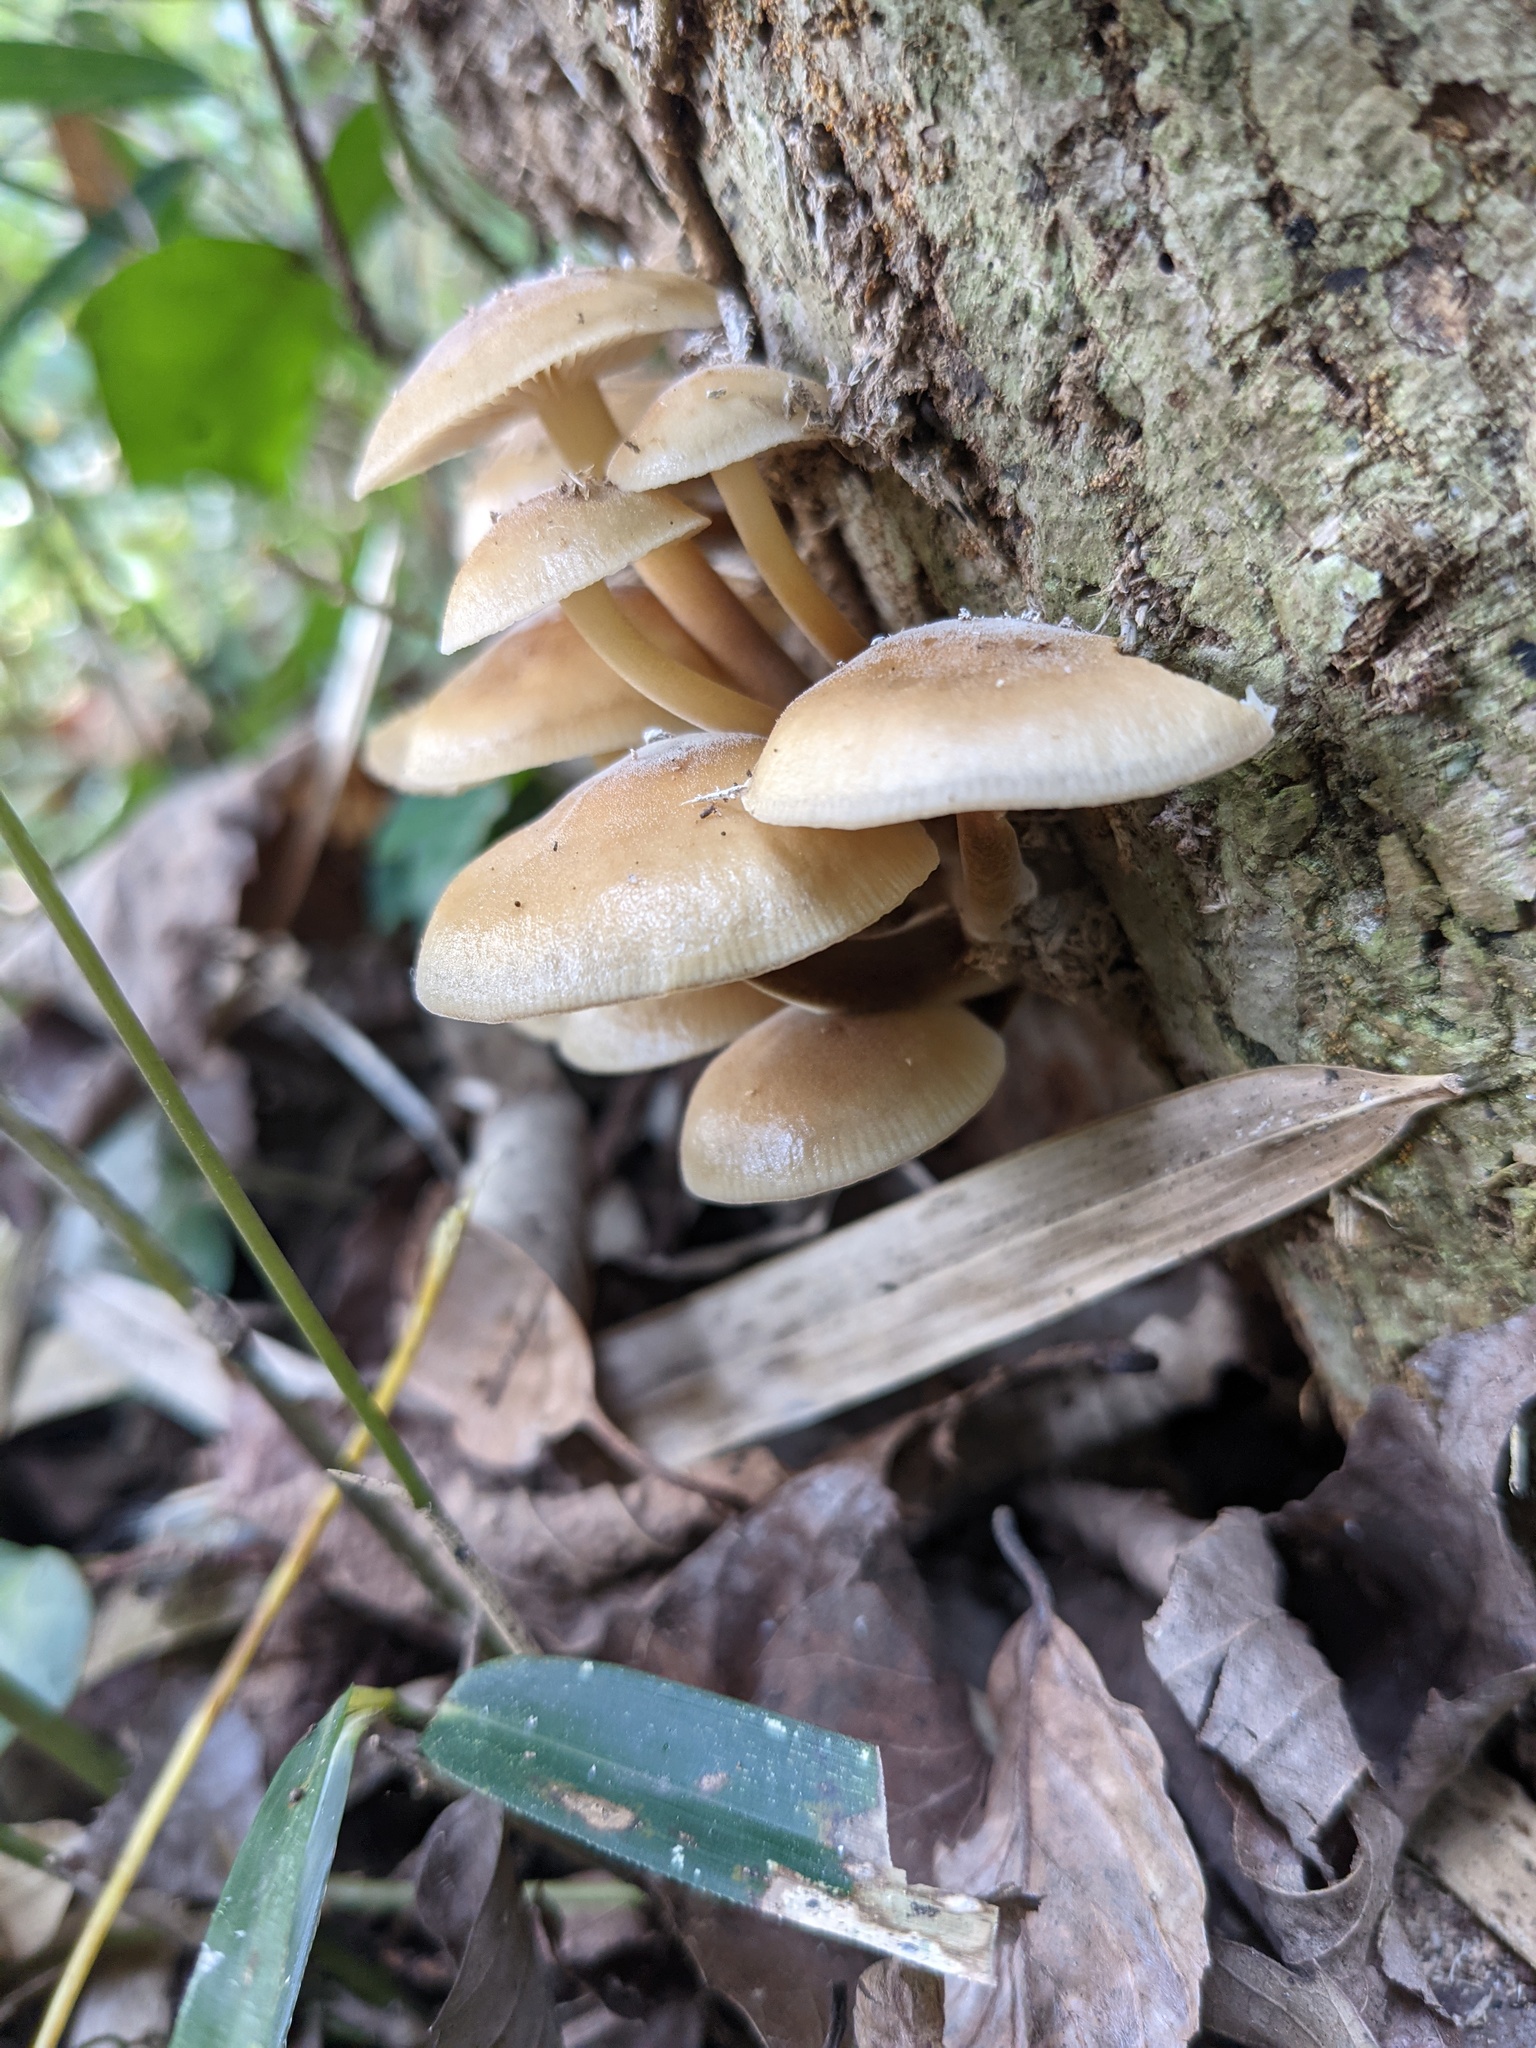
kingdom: Fungi
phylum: Basidiomycota
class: Agaricomycetes
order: Agaricales
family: Physalacriaceae
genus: Flammulina
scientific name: Flammulina velutipes
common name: Velvet shank
